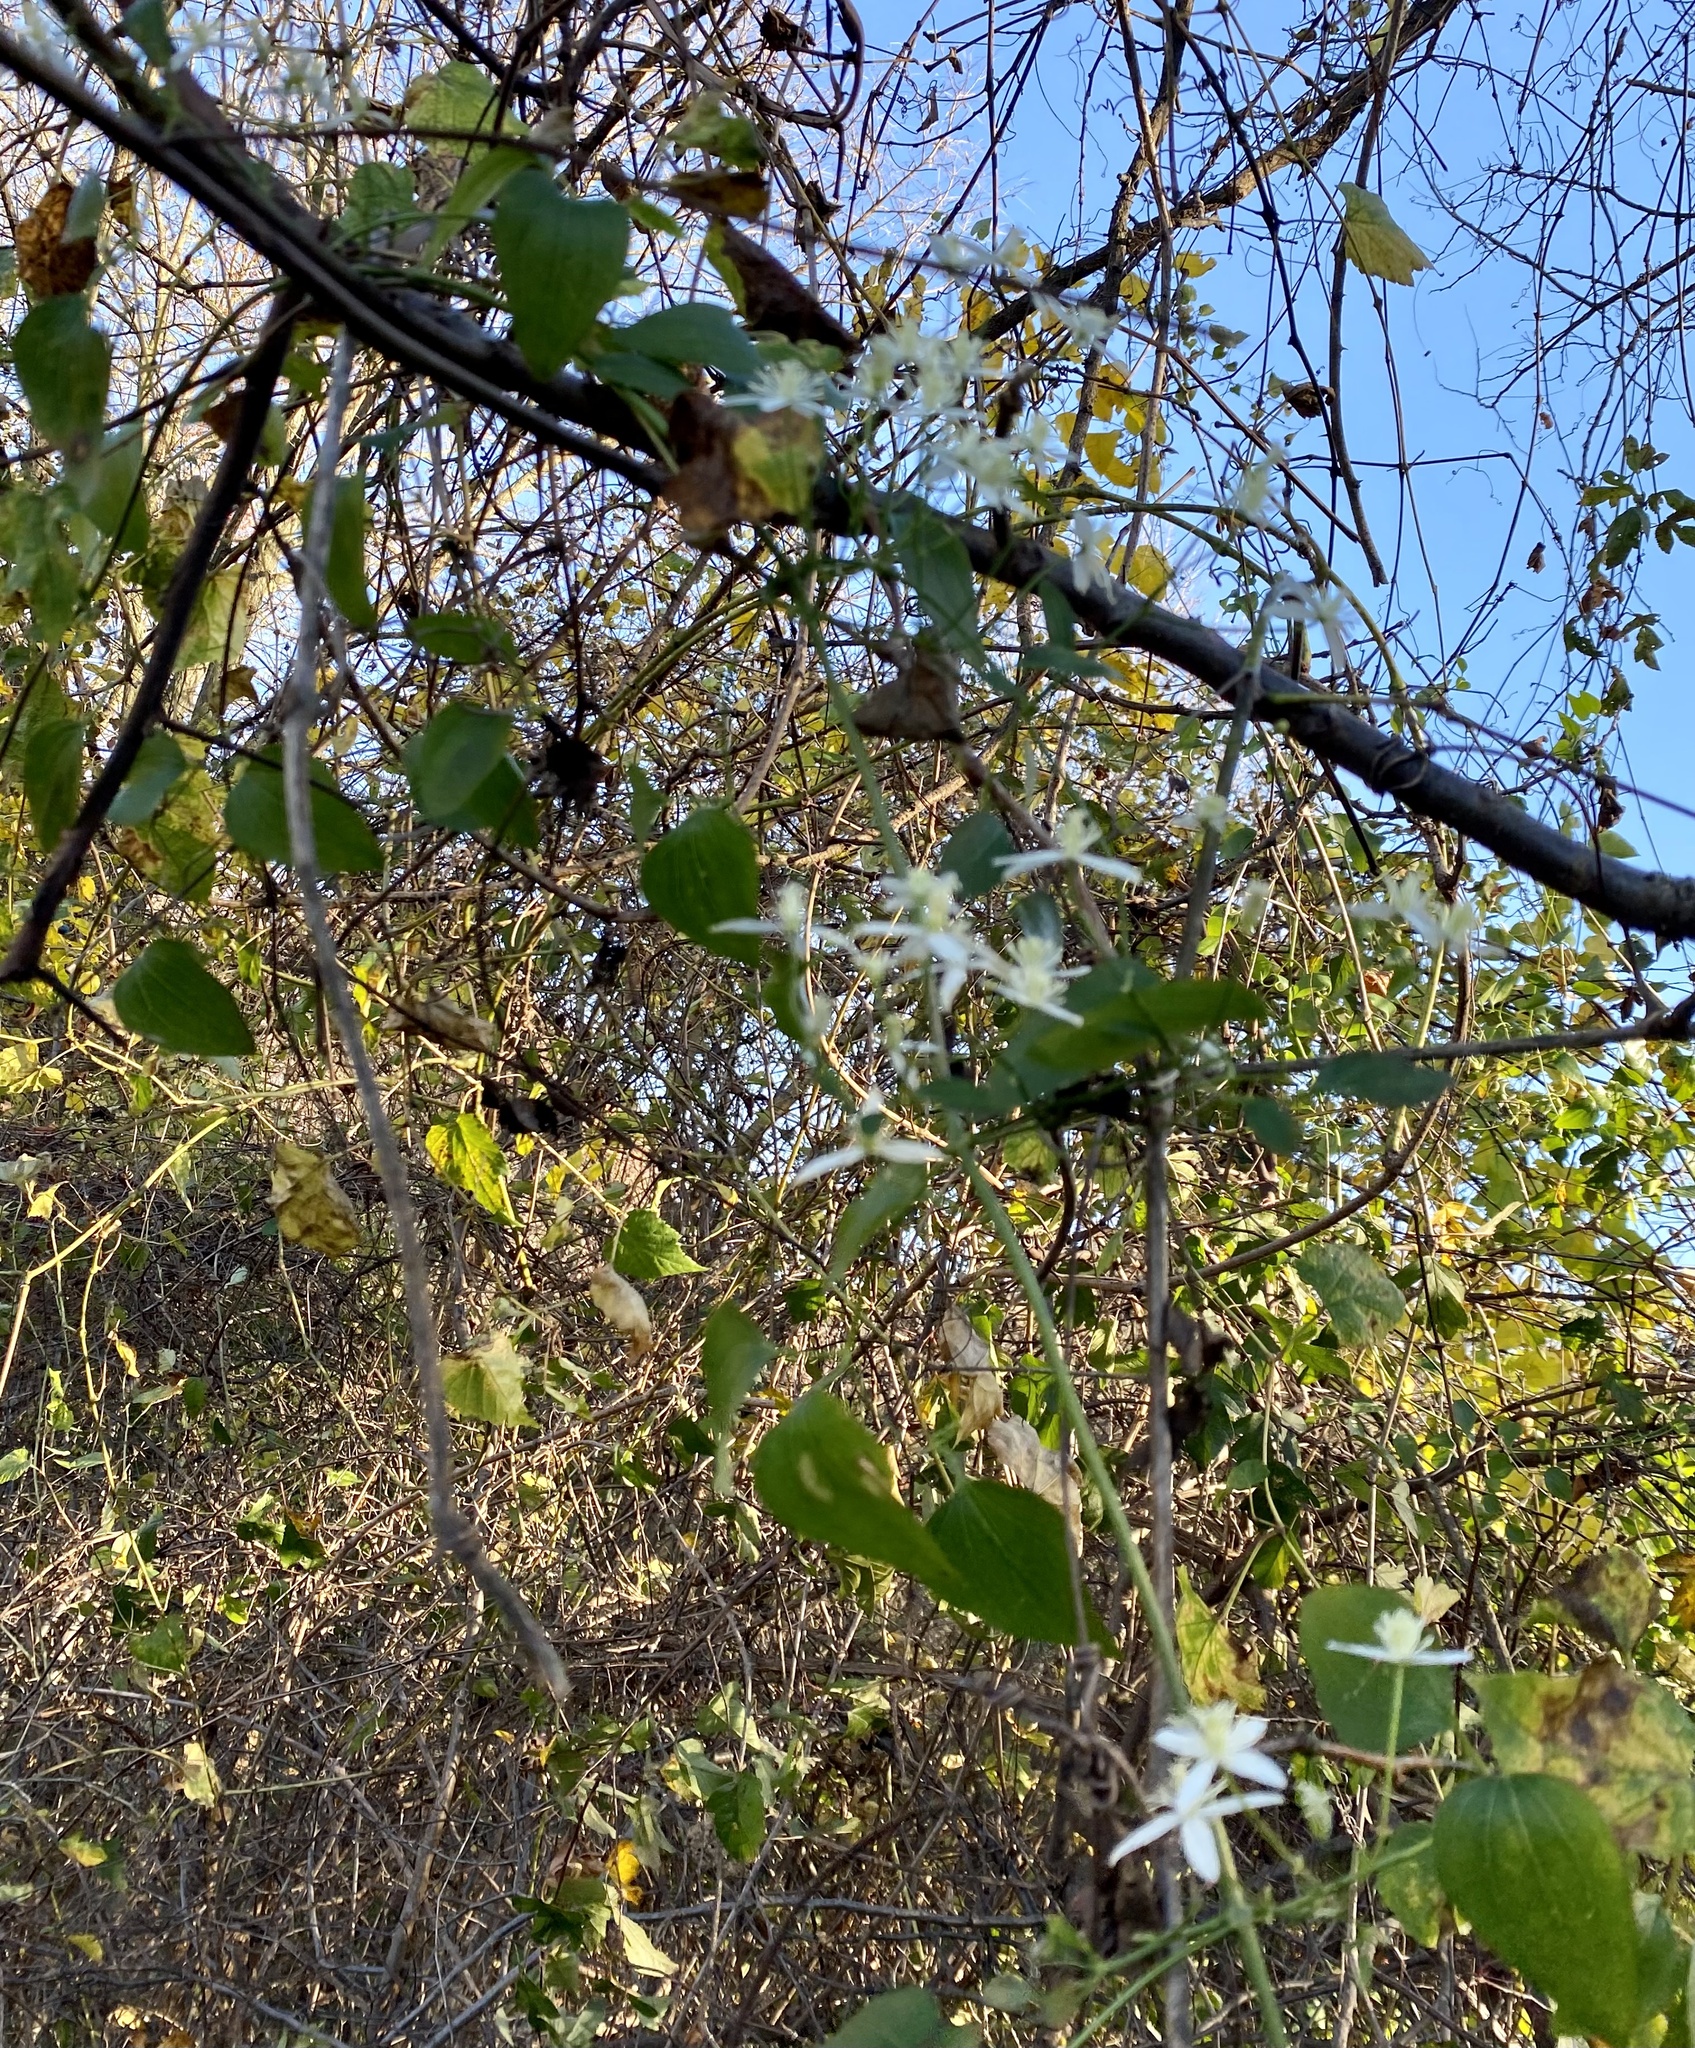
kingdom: Plantae
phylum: Tracheophyta
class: Magnoliopsida
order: Ranunculales
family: Ranunculaceae
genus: Clematis
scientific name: Clematis terniflora
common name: Sweet autumn clematis
